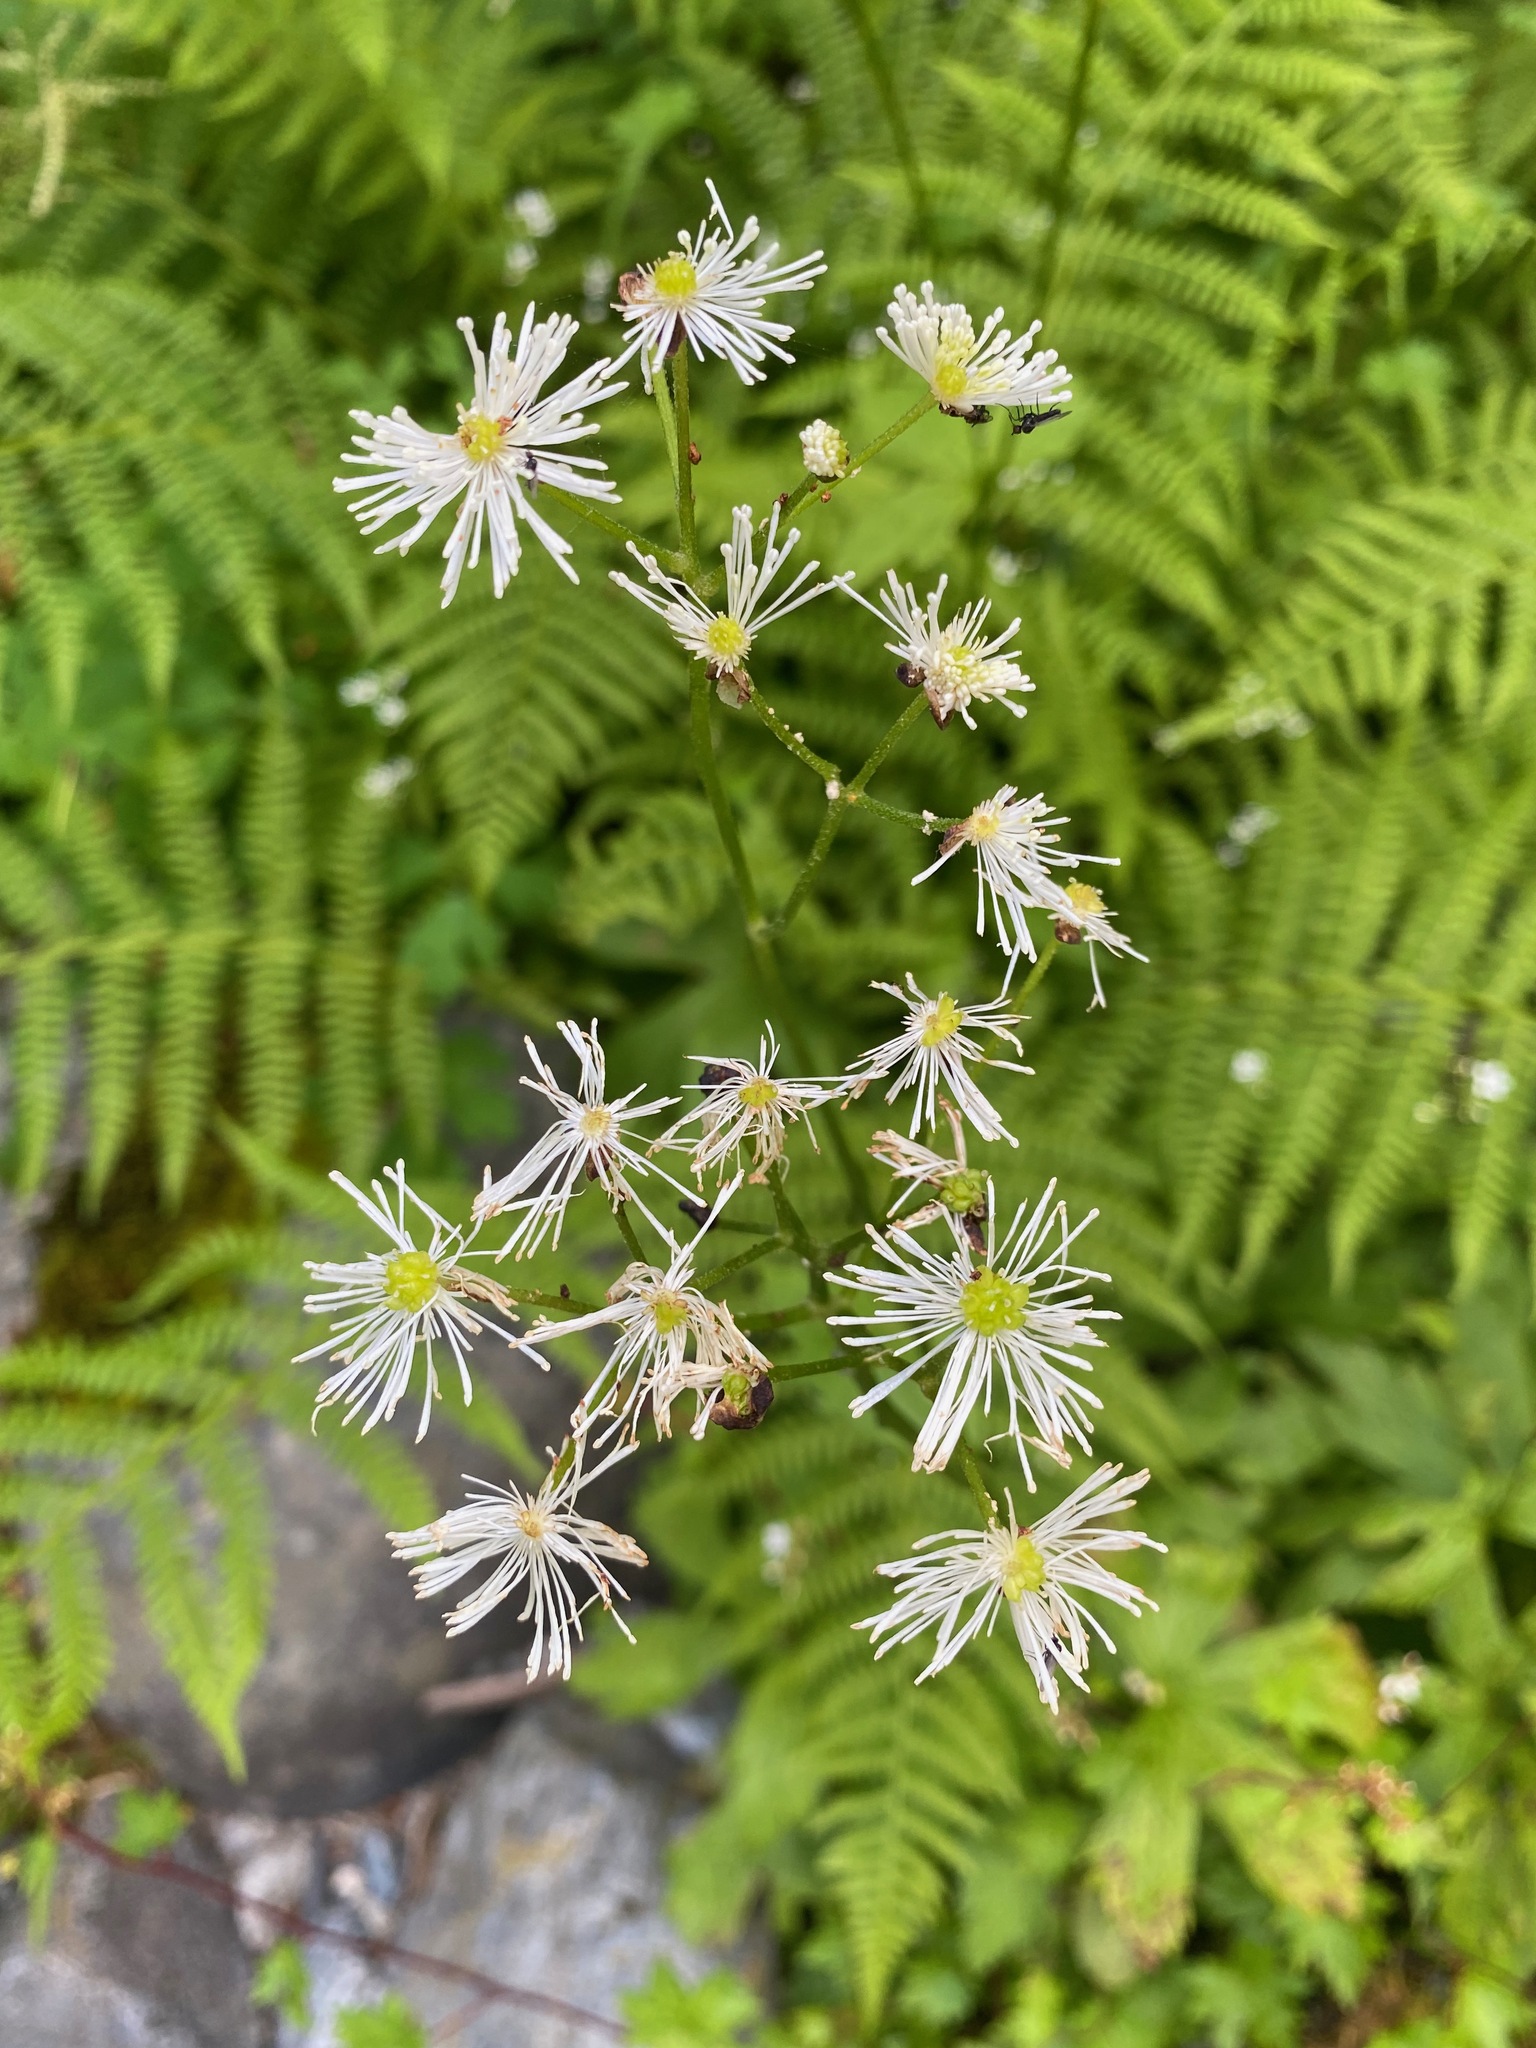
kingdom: Plantae
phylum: Tracheophyta
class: Magnoliopsida
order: Ranunculales
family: Ranunculaceae
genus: Trautvetteria
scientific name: Trautvetteria carolinensis
